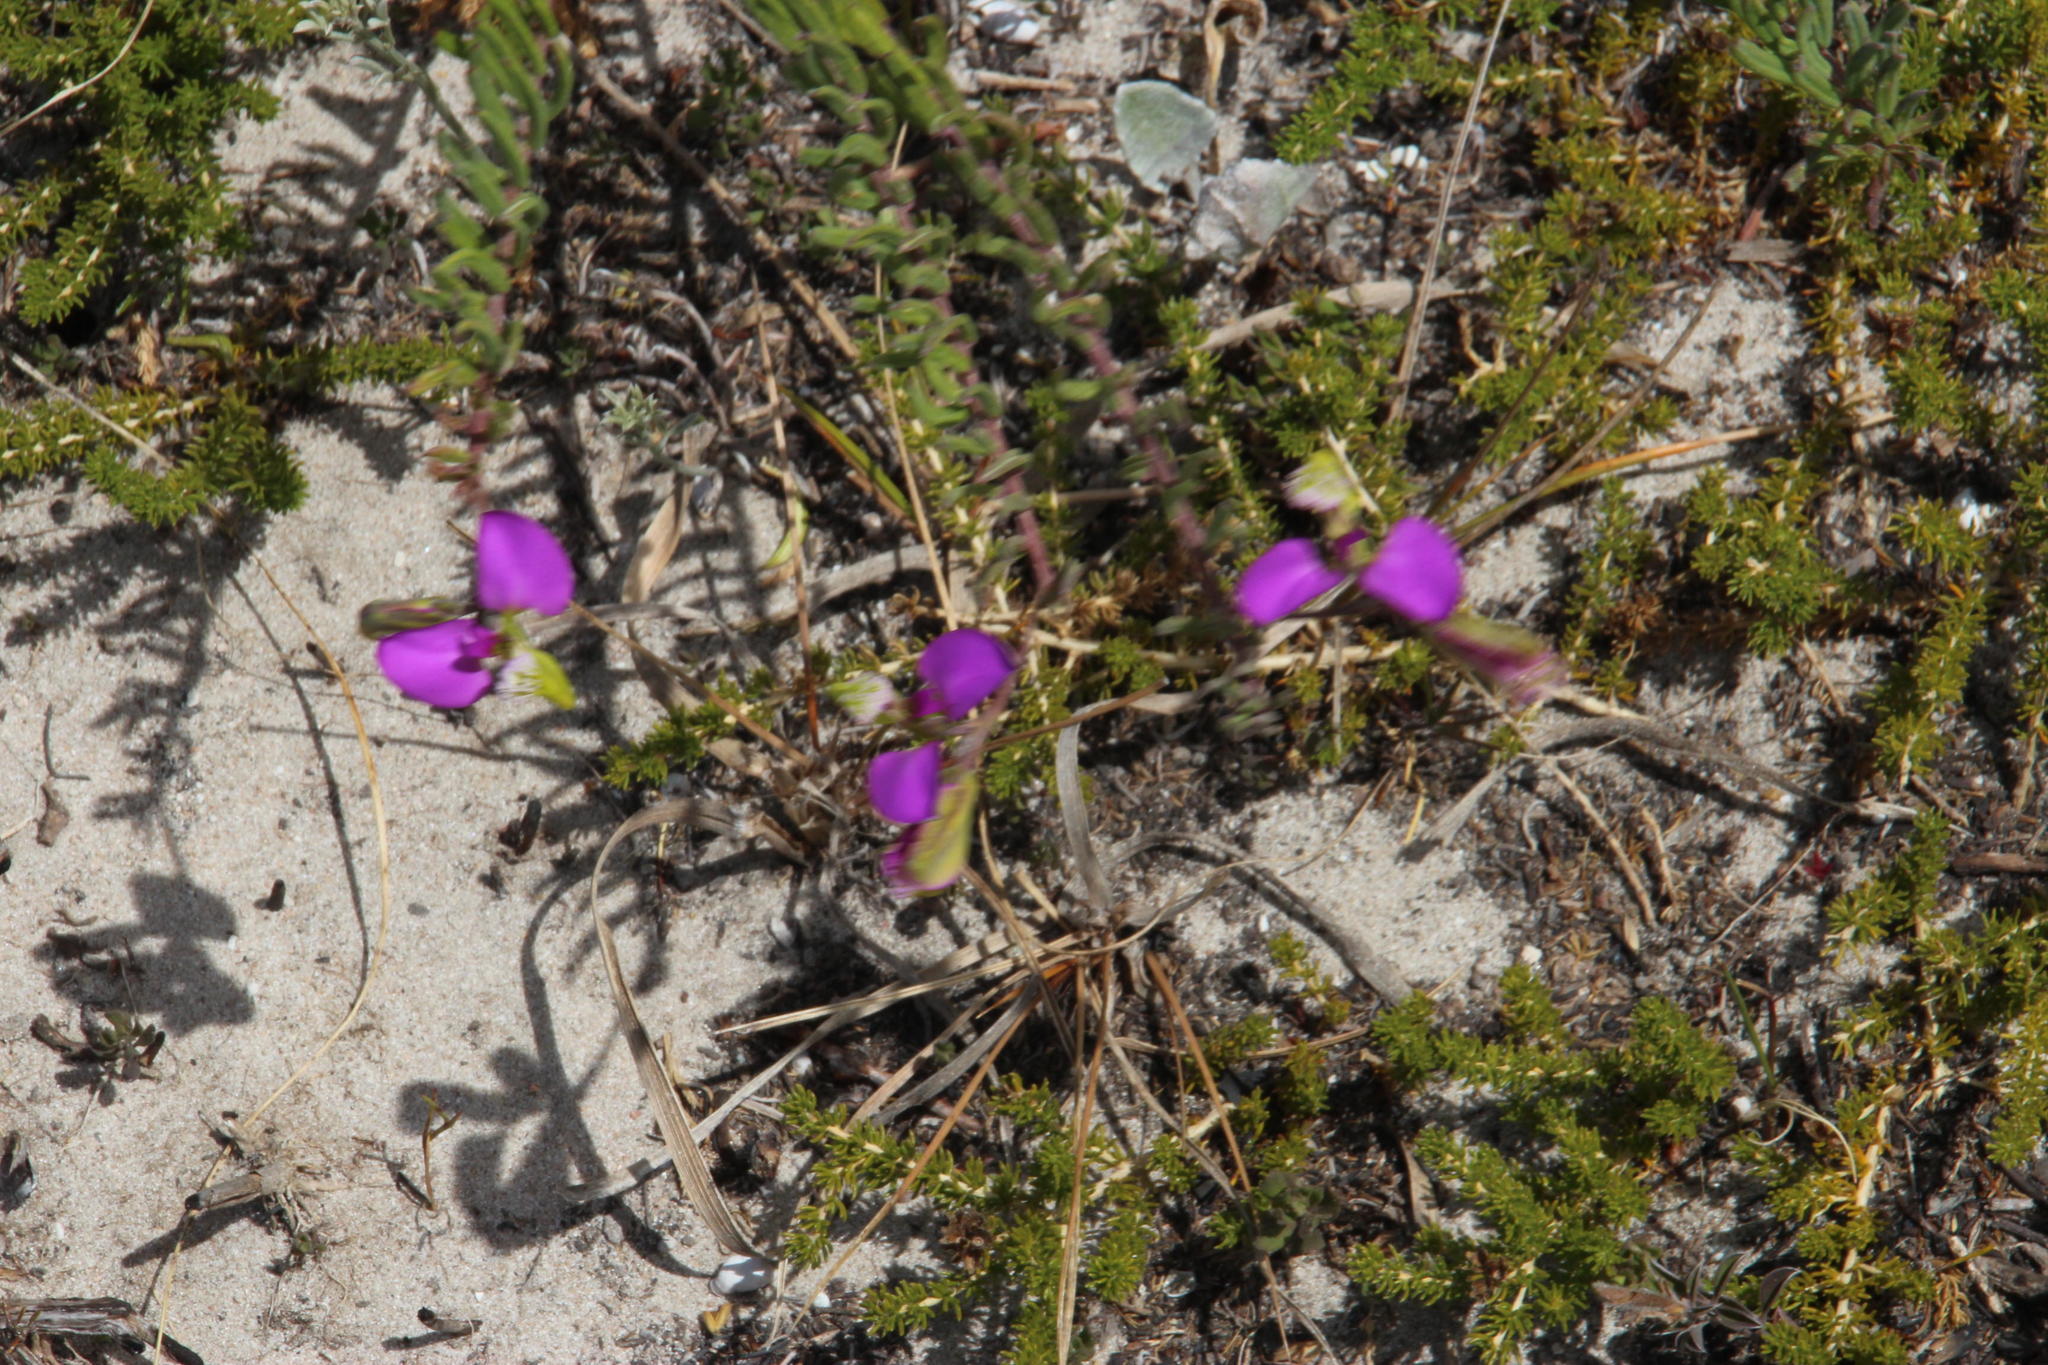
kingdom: Plantae
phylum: Tracheophyta
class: Magnoliopsida
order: Fabales
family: Polygalaceae
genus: Polygala
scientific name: Polygala peduncularis
